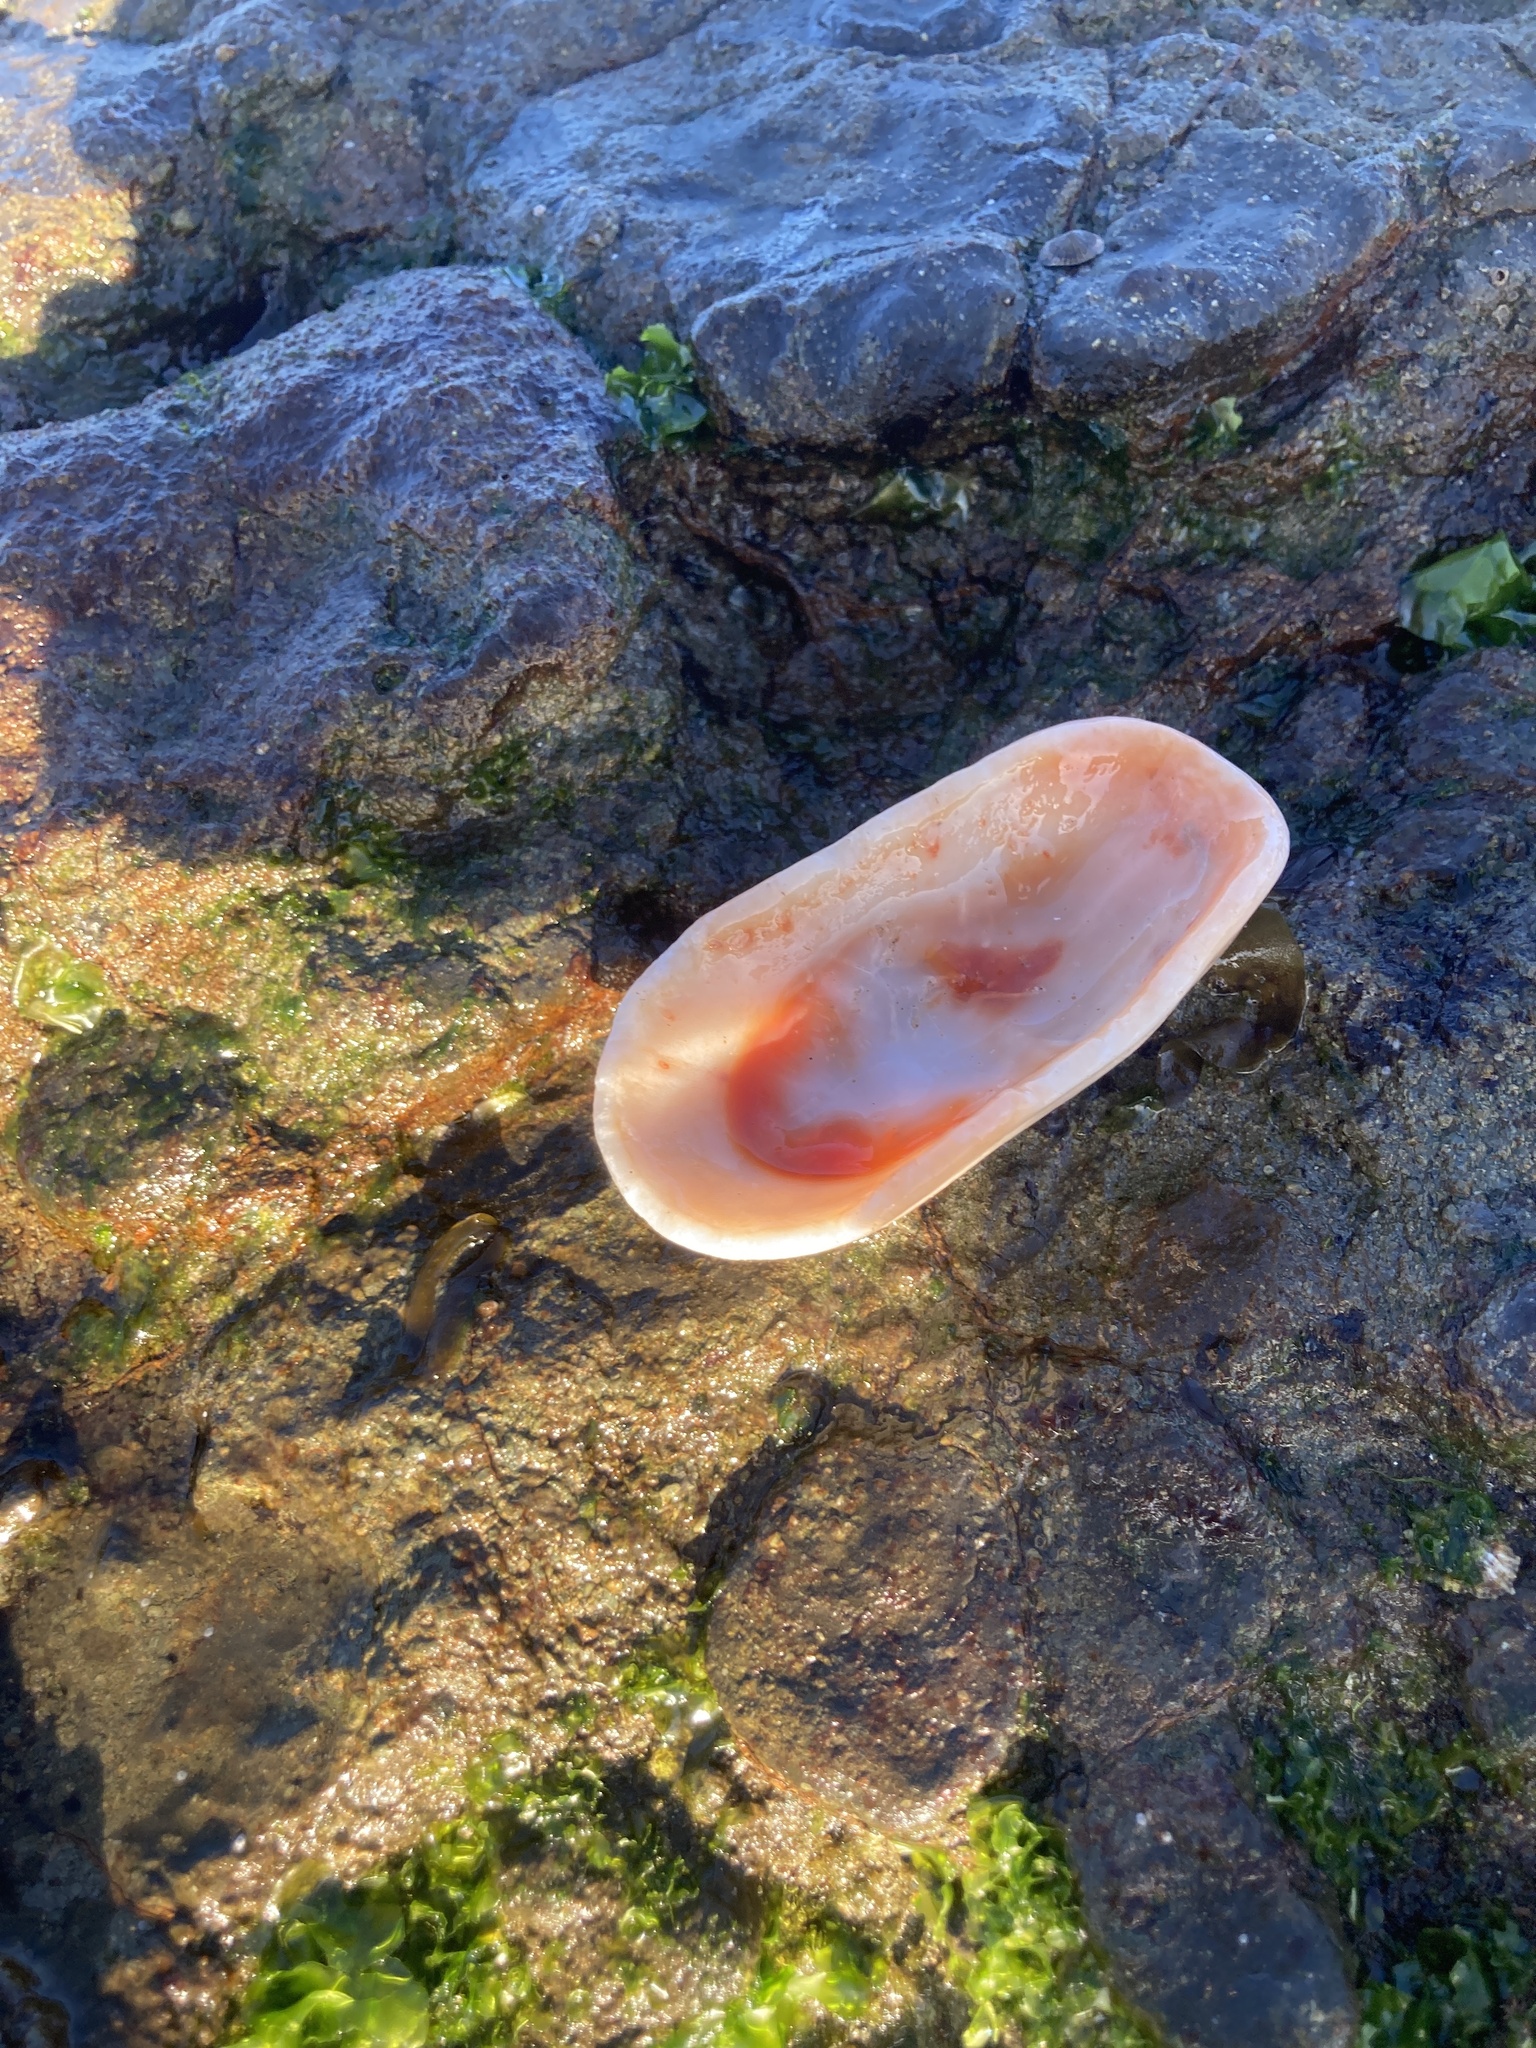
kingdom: Animalia
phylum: Mollusca
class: Gastropoda
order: Lepetellida
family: Fissurellidae
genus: Scutus
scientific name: Scutus antipodes
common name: Duckbill shell
